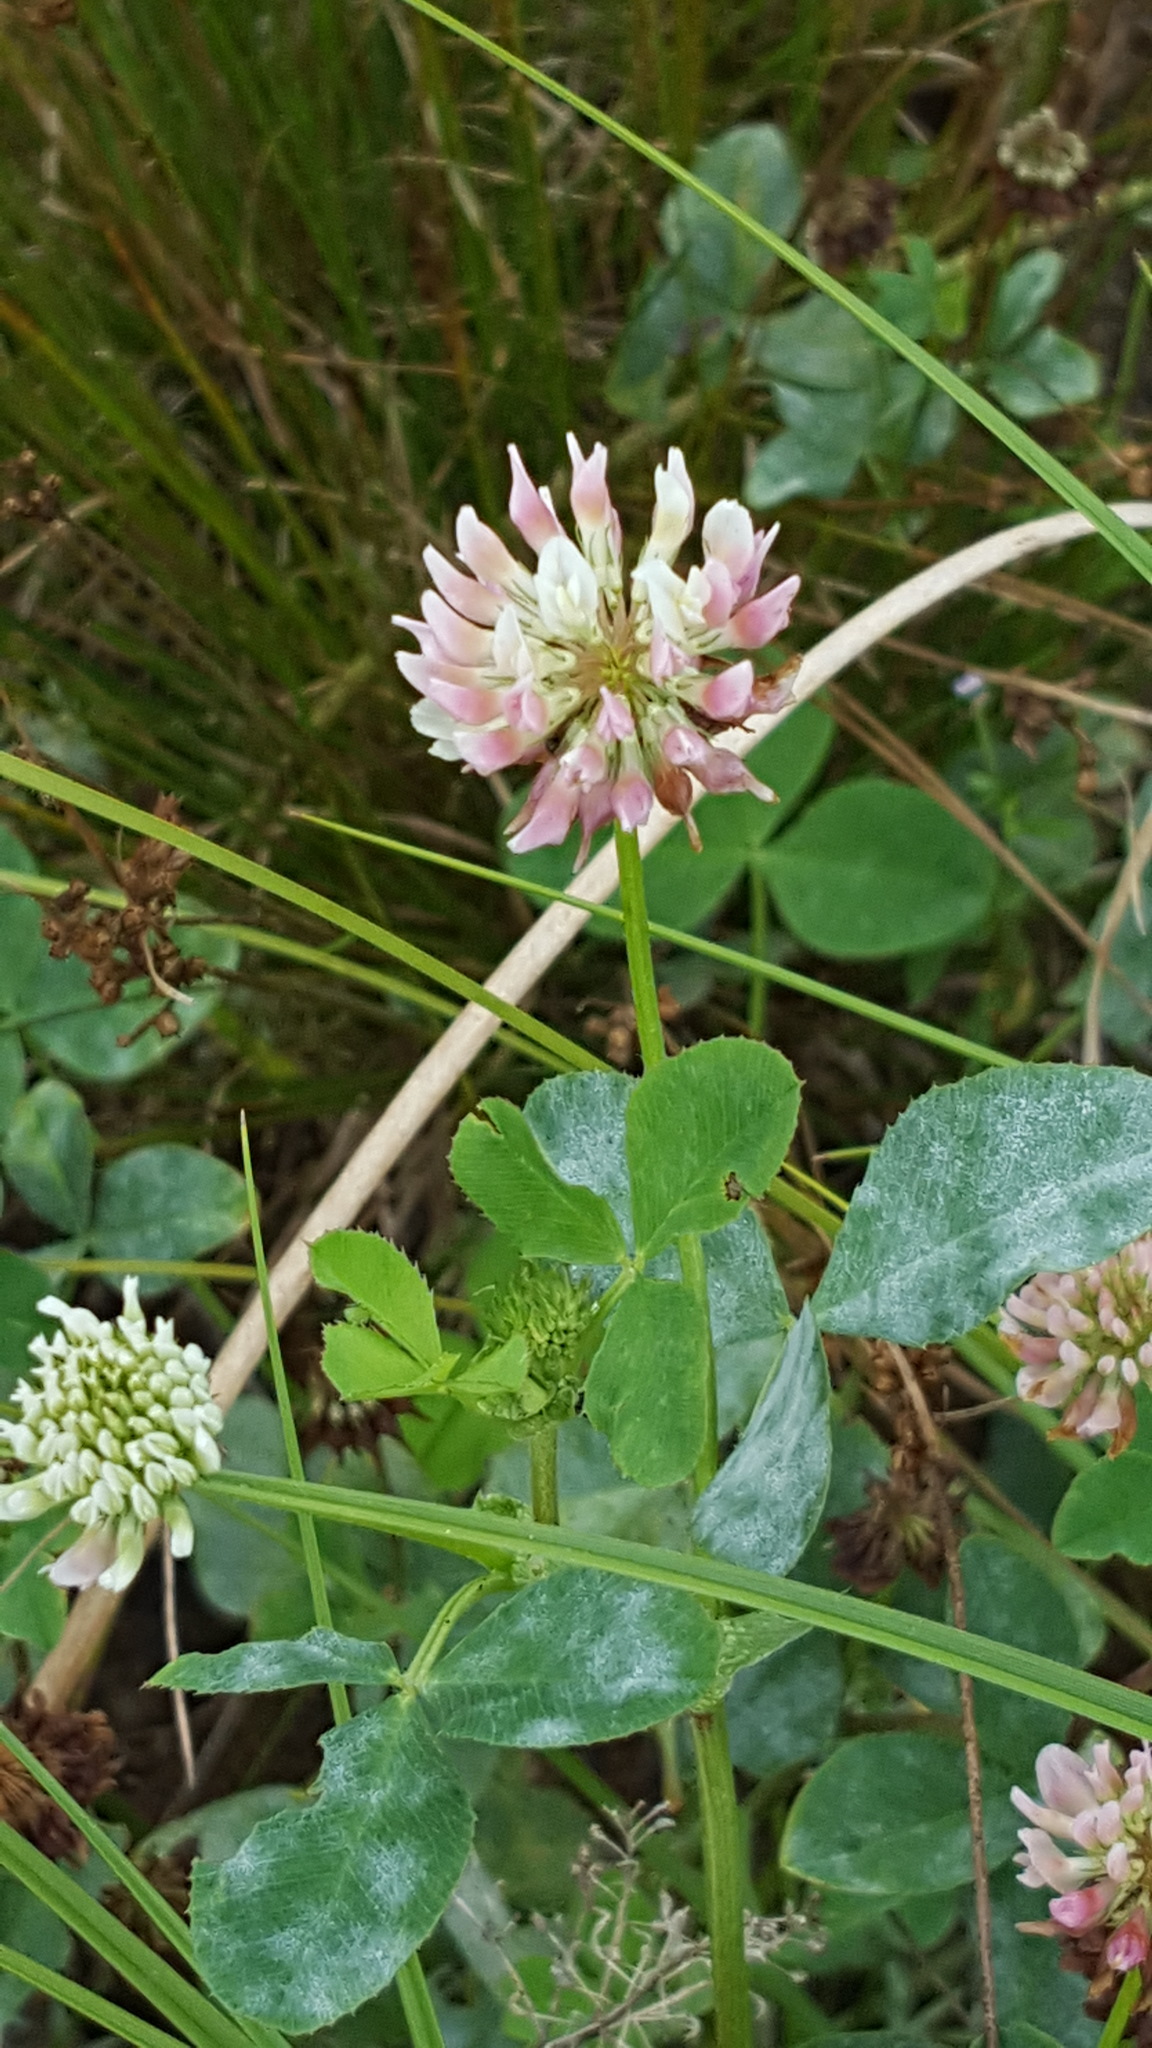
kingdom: Plantae
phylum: Tracheophyta
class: Magnoliopsida
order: Fabales
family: Fabaceae
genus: Trifolium
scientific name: Trifolium hybridum
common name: Alsike clover
